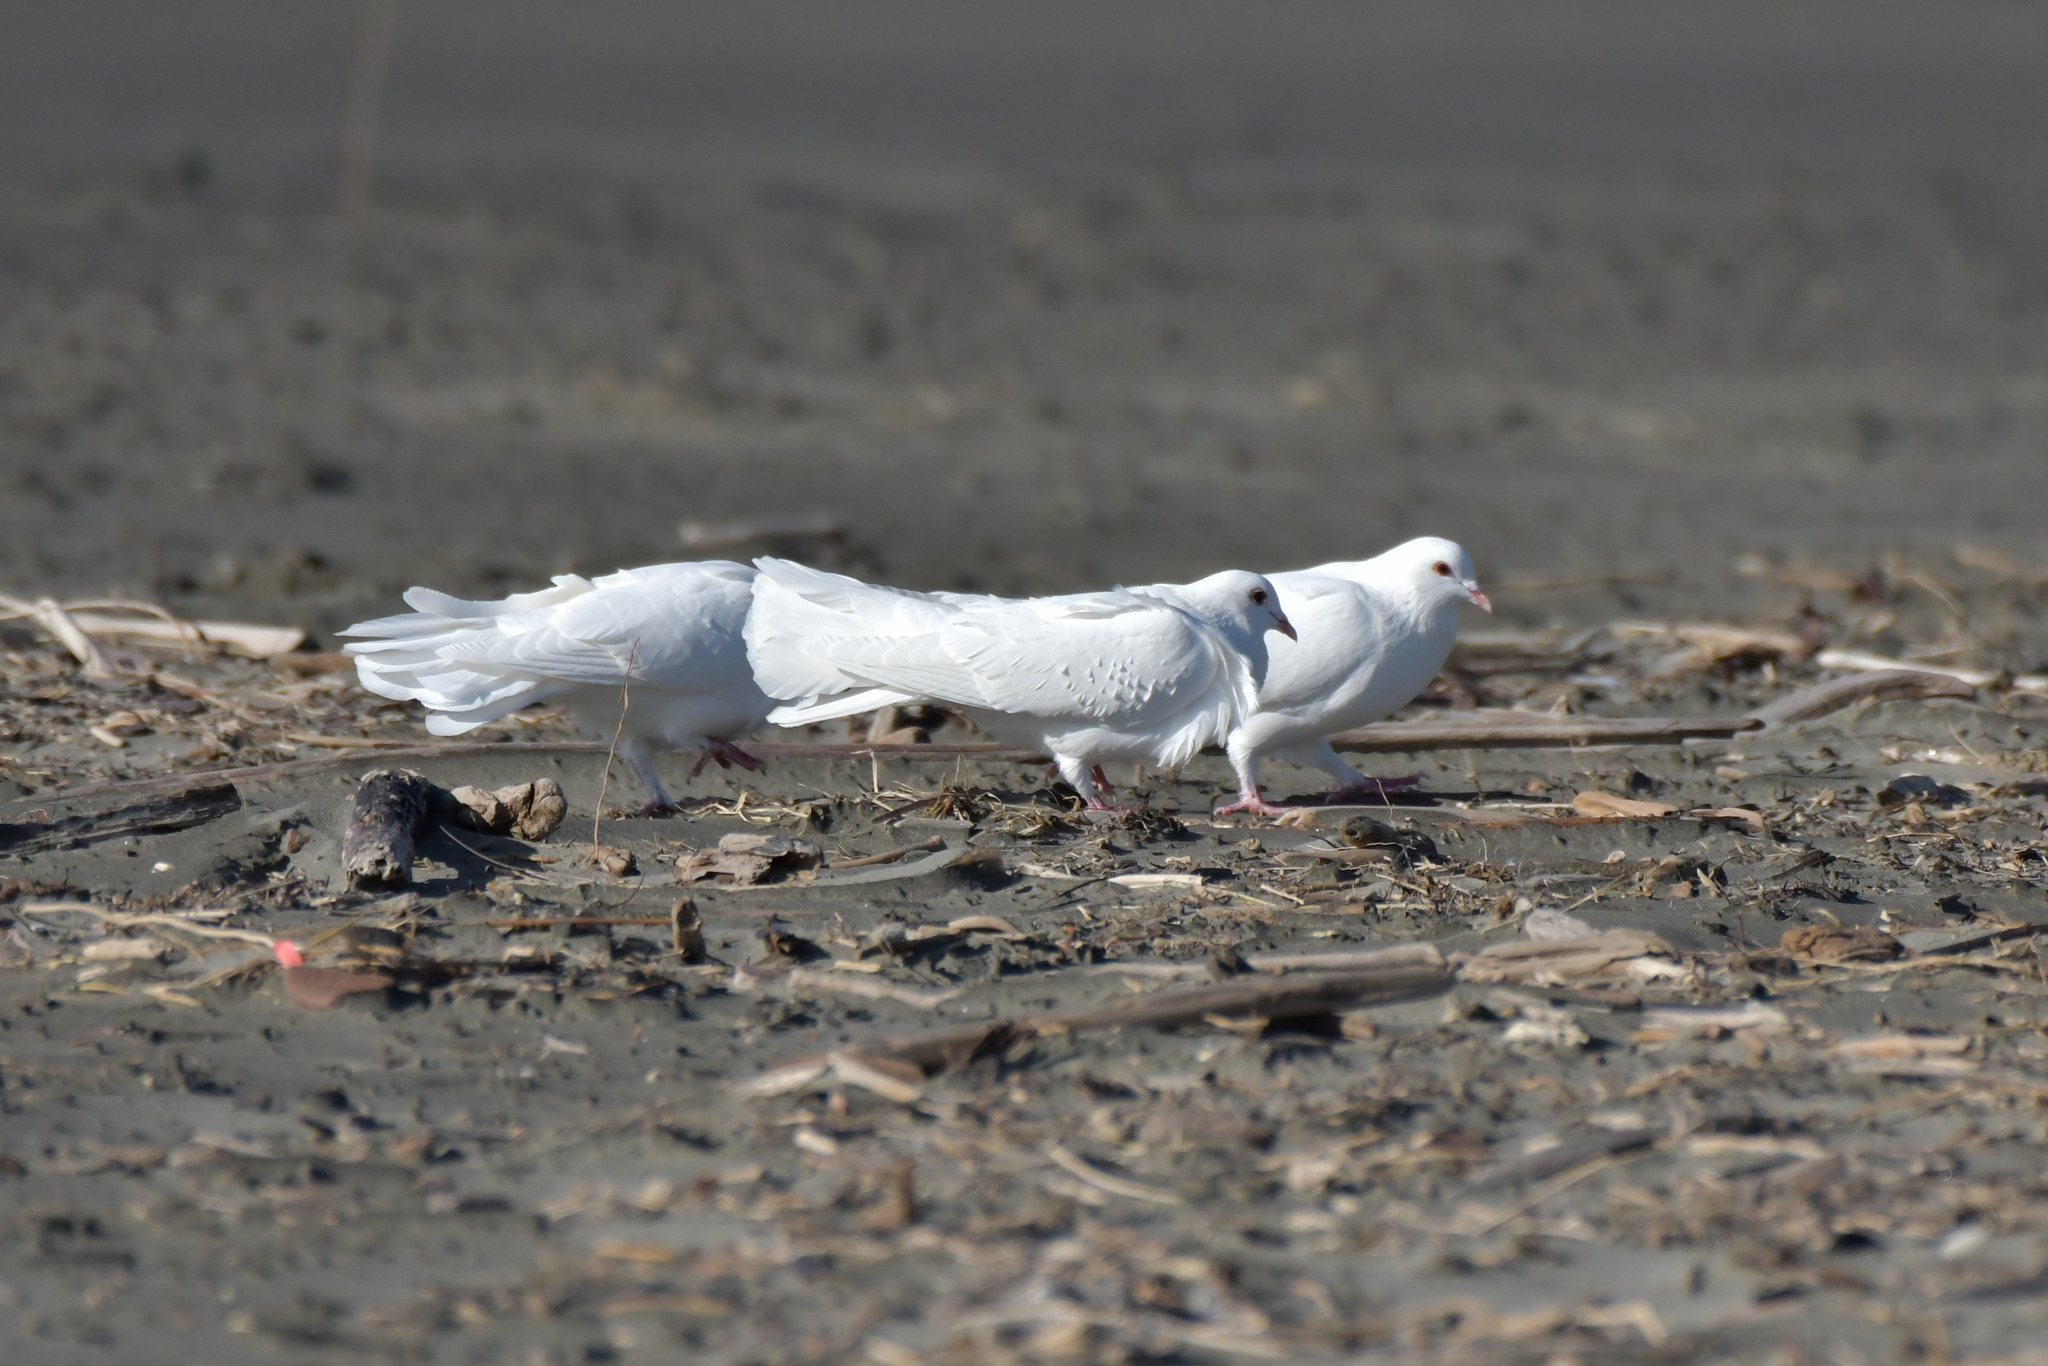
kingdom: Animalia
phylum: Chordata
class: Aves
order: Columbiformes
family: Columbidae
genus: Columba
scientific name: Columba livia
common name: Rock pigeon
